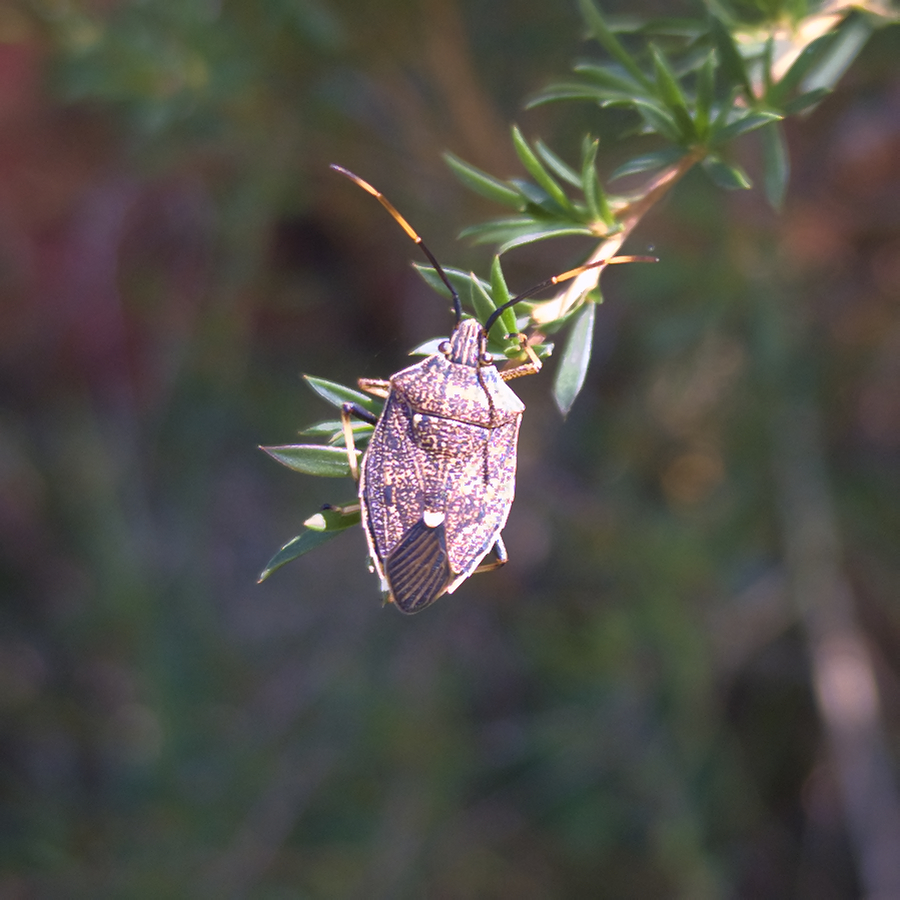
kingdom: Animalia
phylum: Arthropoda
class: Insecta
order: Hemiptera
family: Pentatomidae
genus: Poecilometis
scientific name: Poecilometis
